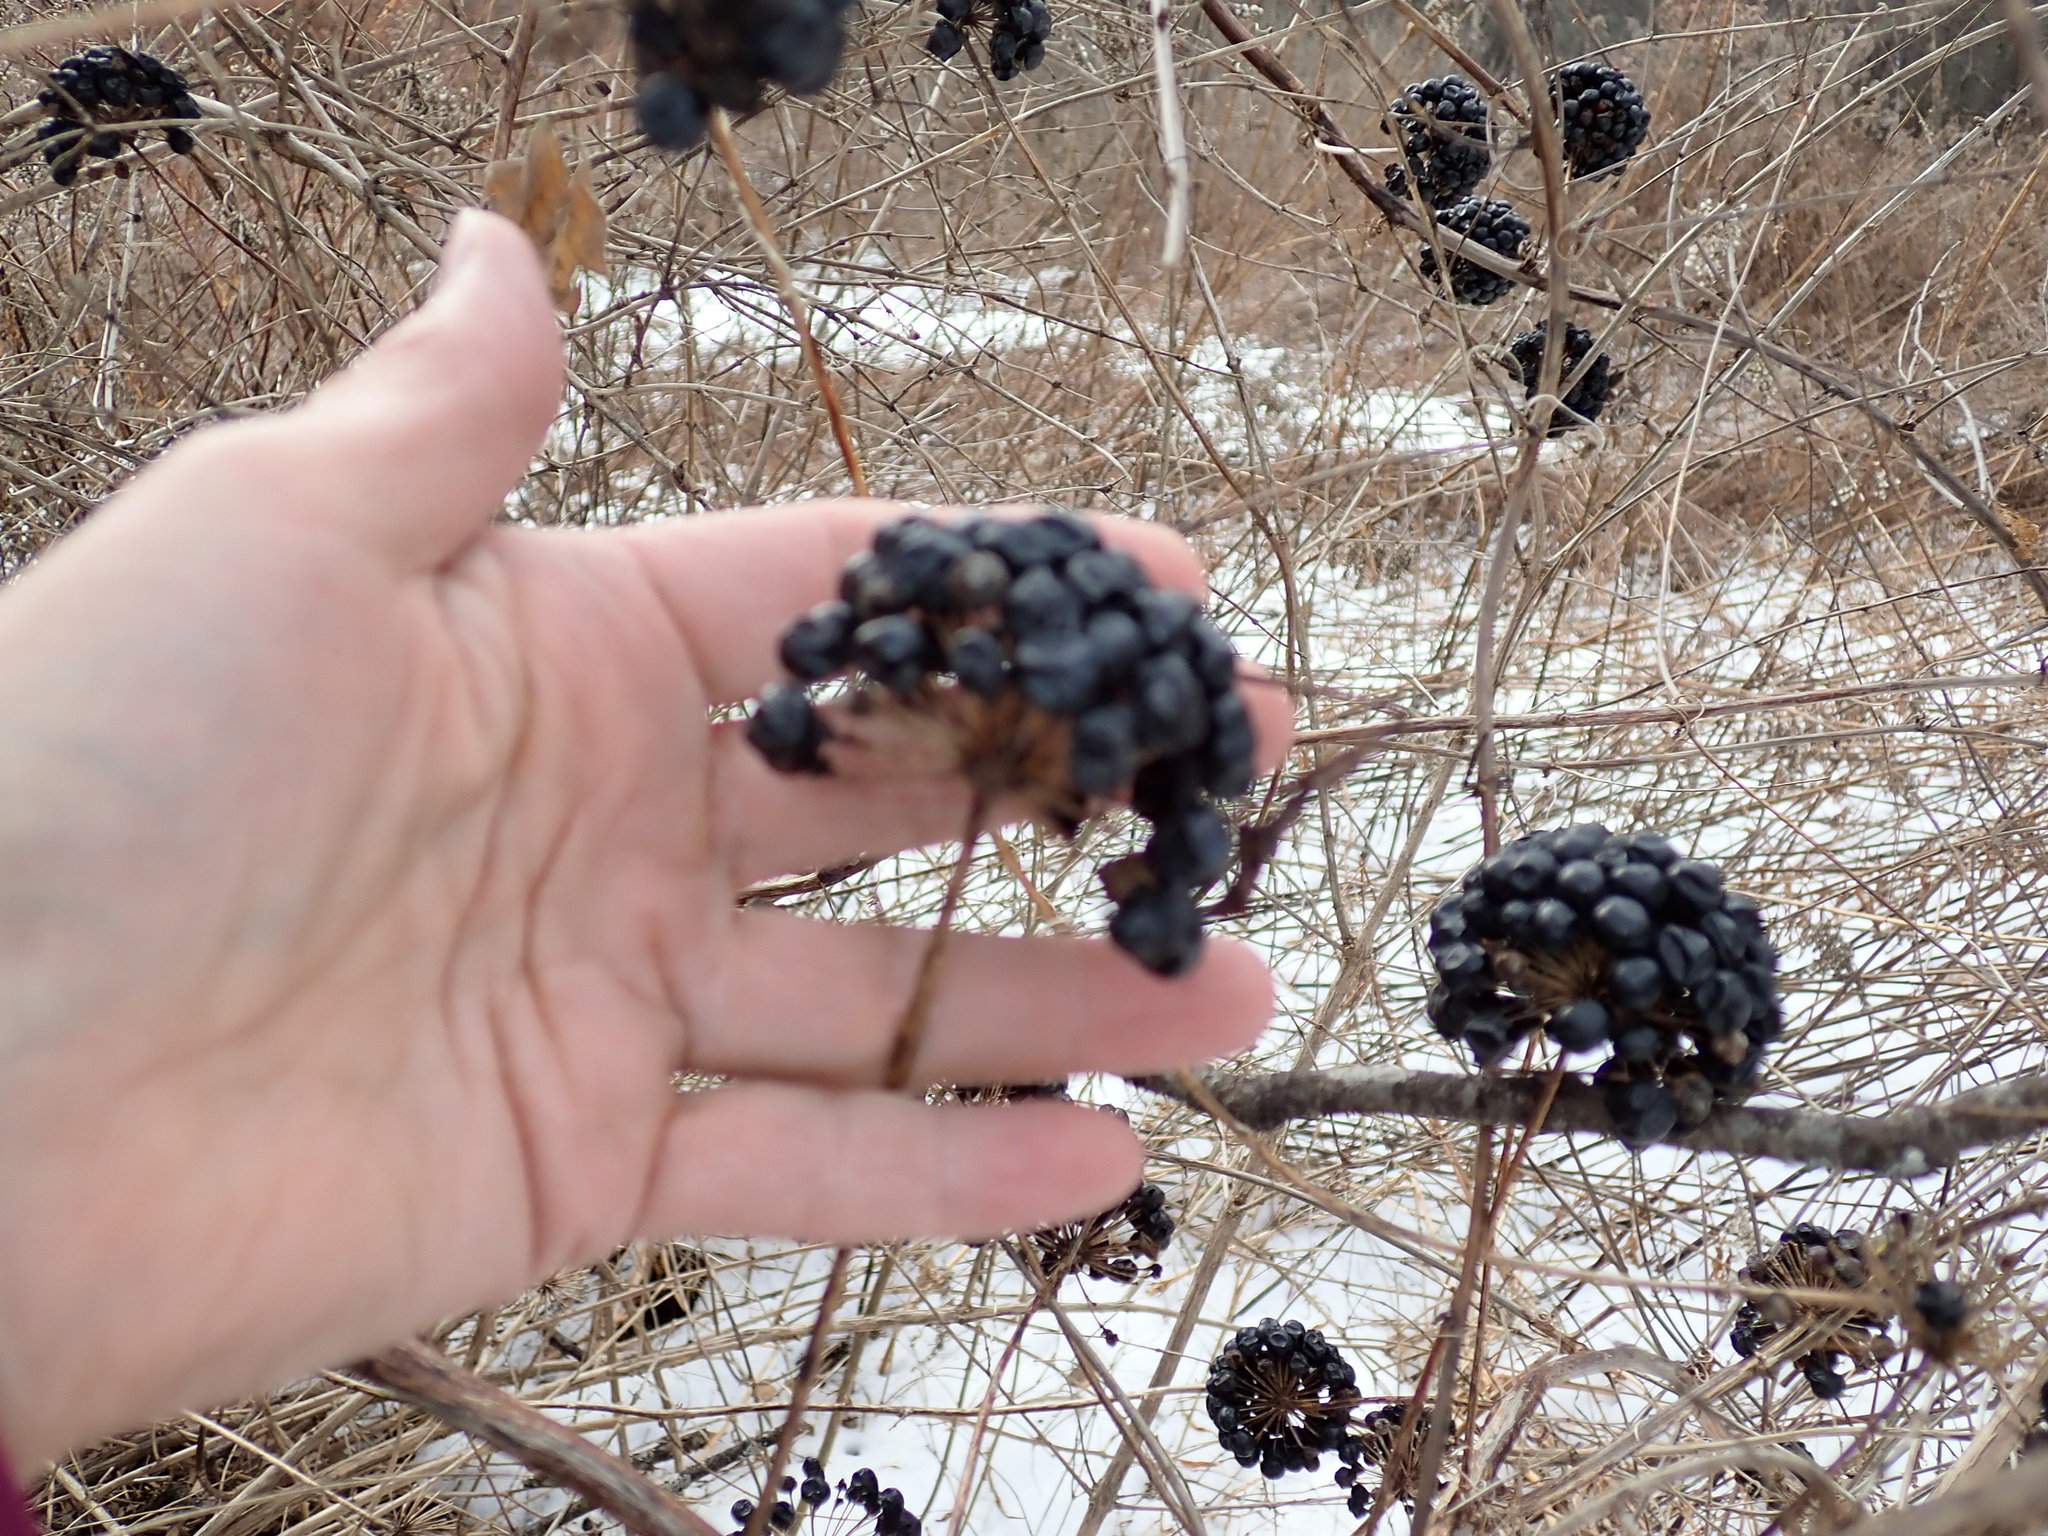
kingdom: Plantae
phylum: Tracheophyta
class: Liliopsida
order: Liliales
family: Smilacaceae
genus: Smilax
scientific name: Smilax herbacea
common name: Jacob's-ladder
